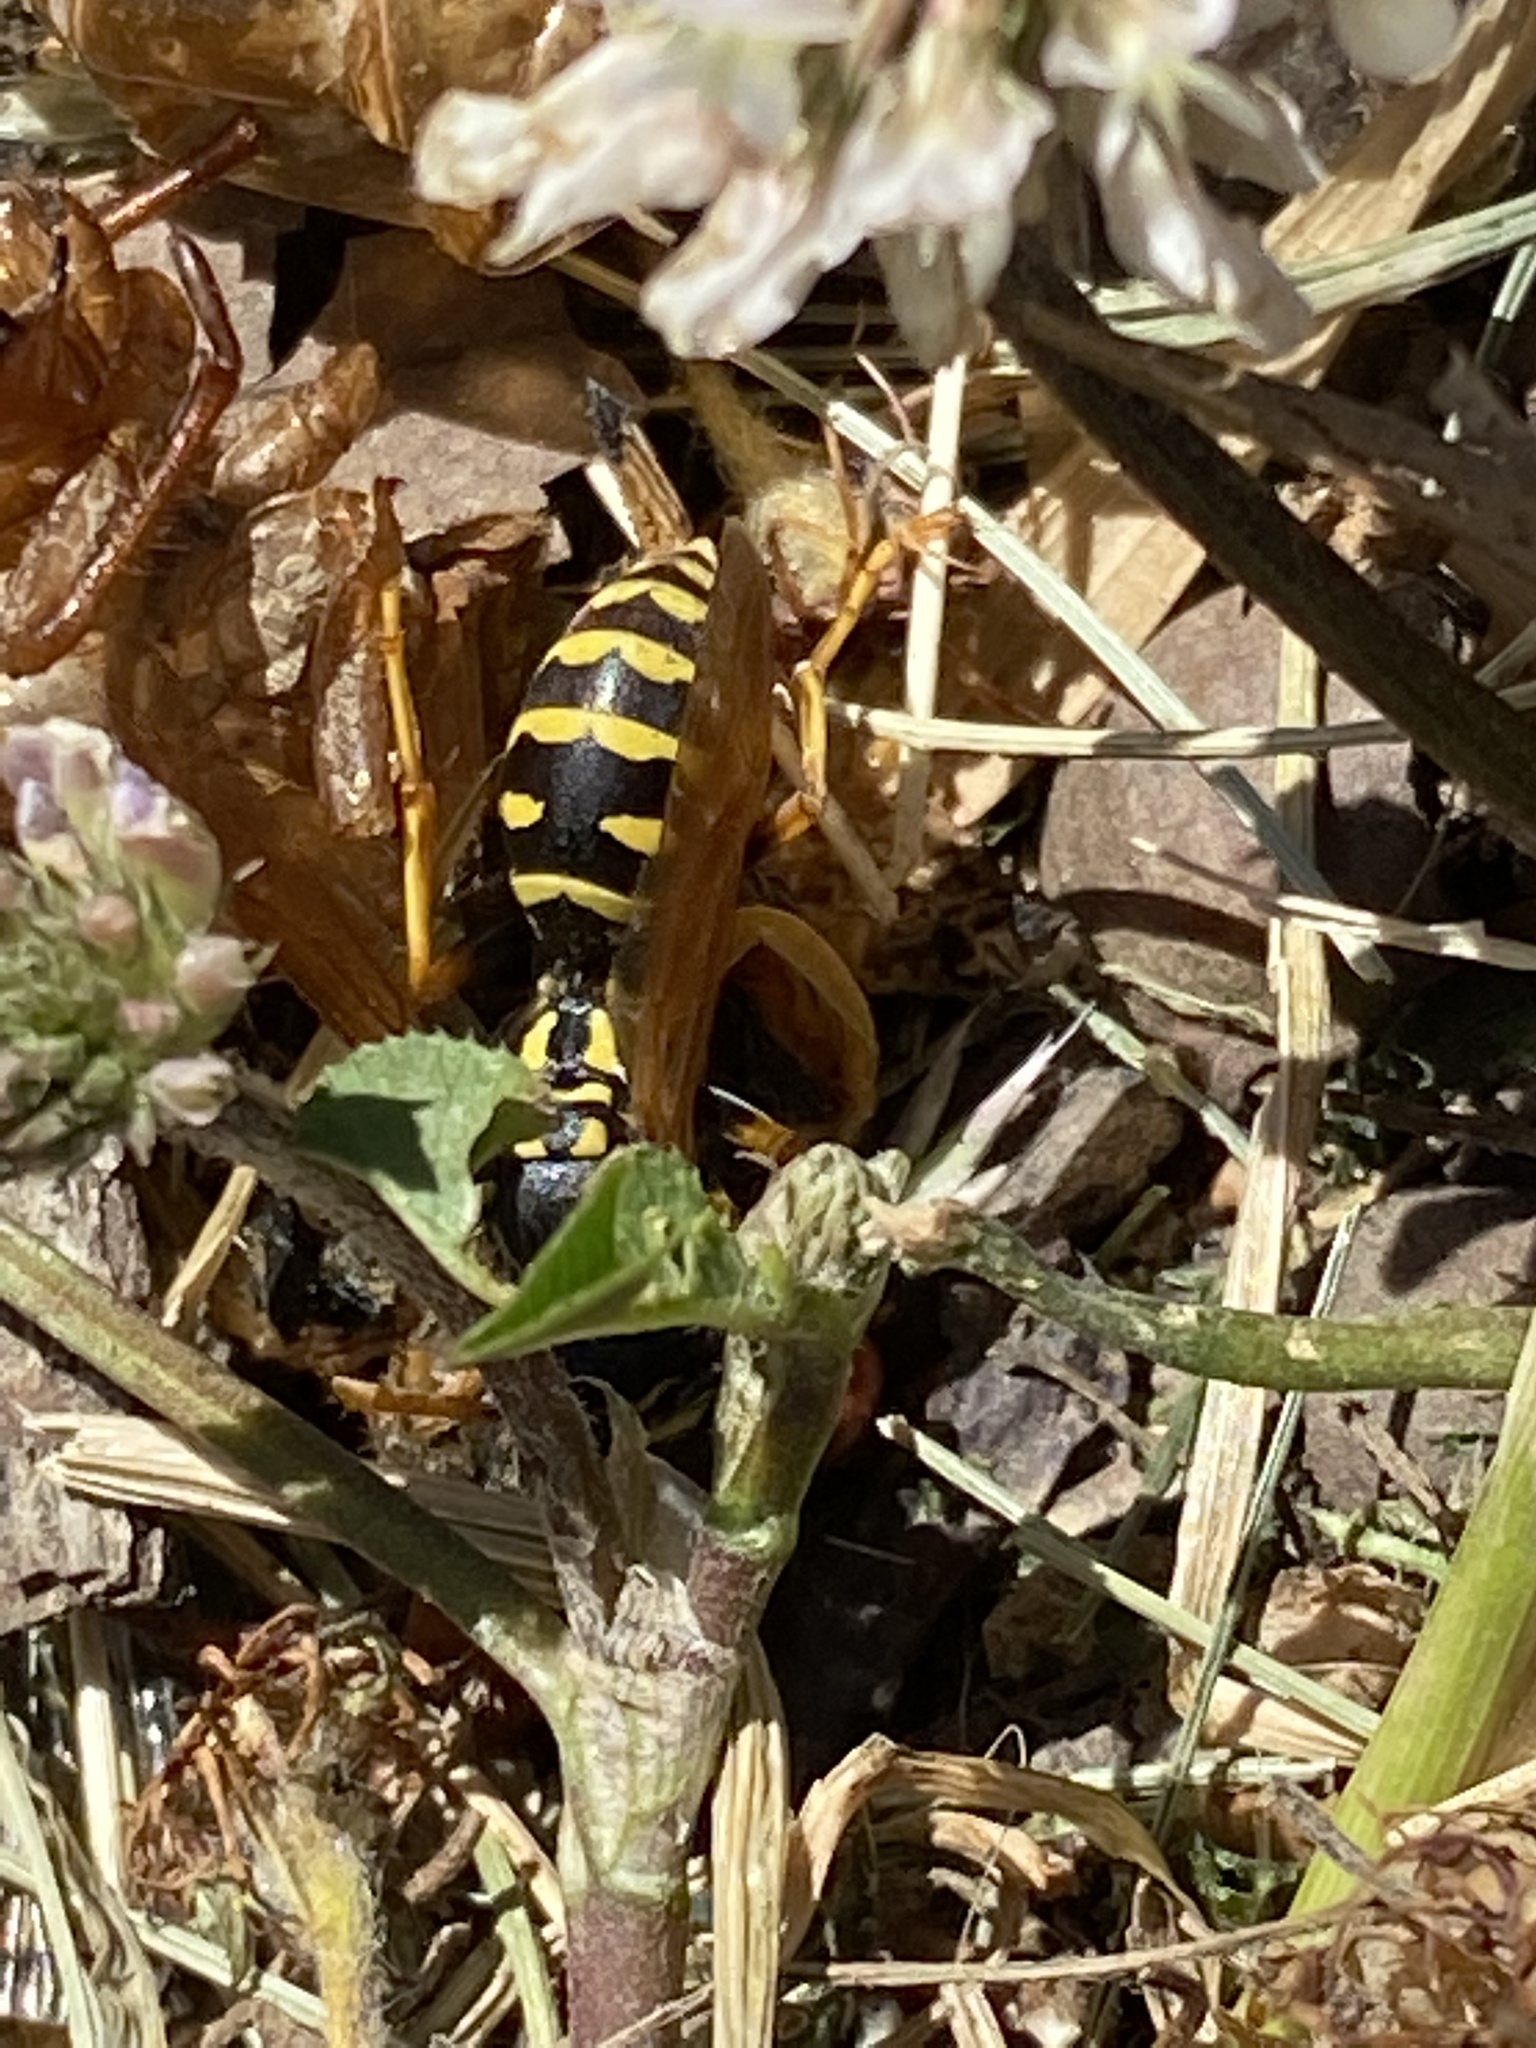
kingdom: Animalia
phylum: Arthropoda
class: Insecta
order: Hymenoptera
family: Eumenidae
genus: Polistes
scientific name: Polistes dominula
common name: Paper wasp
